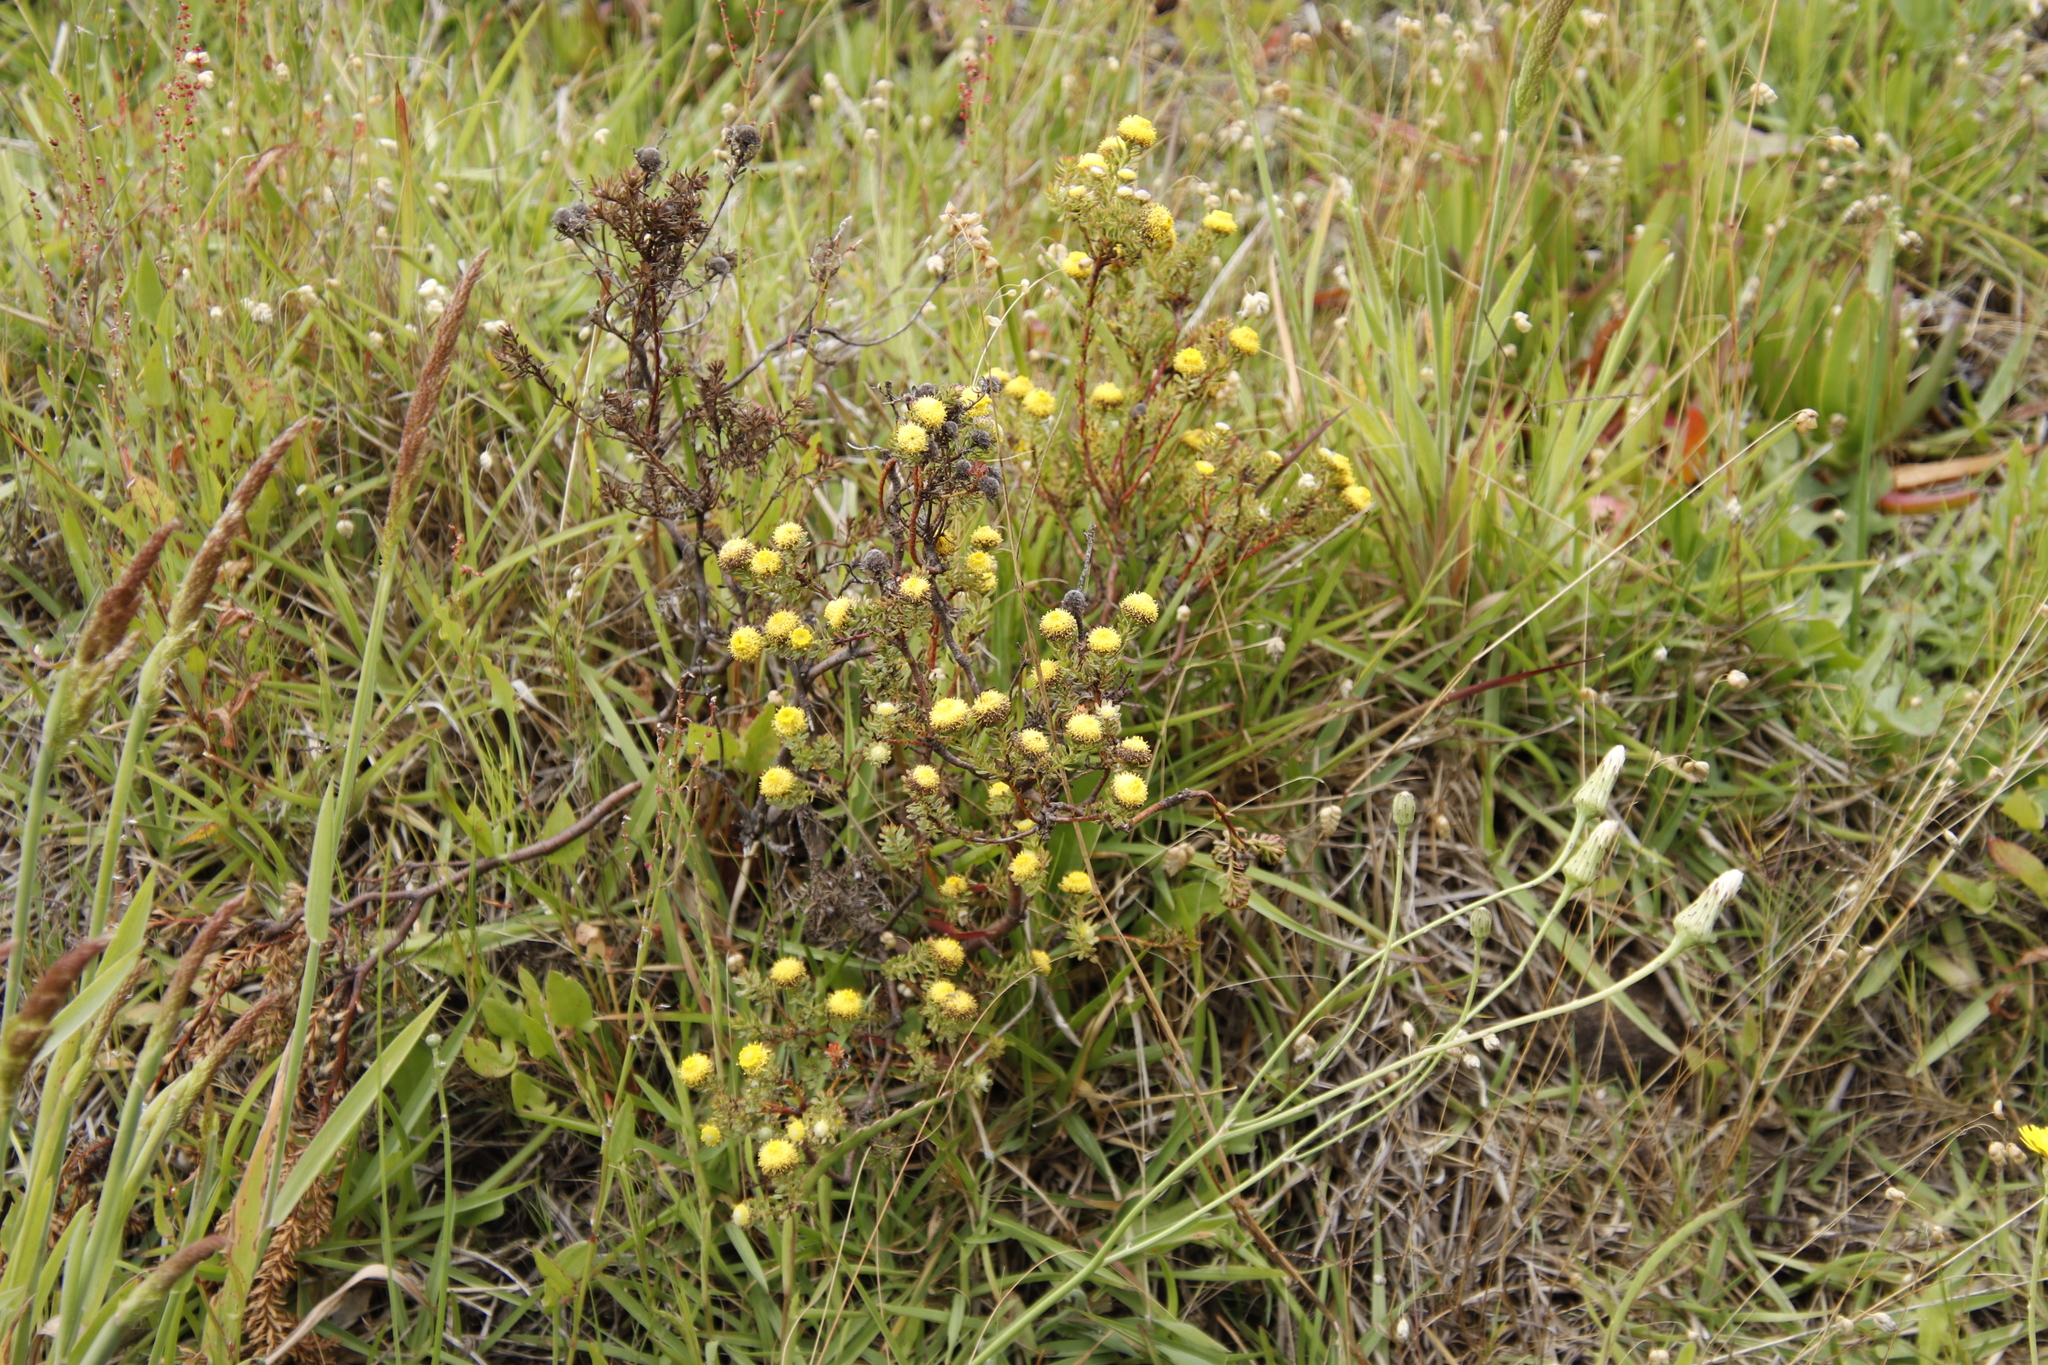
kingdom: Plantae
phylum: Tracheophyta
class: Magnoliopsida
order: Proteales
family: Proteaceae
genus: Leucadendron
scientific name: Leucadendron levisanus
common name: Cape flats conebush
